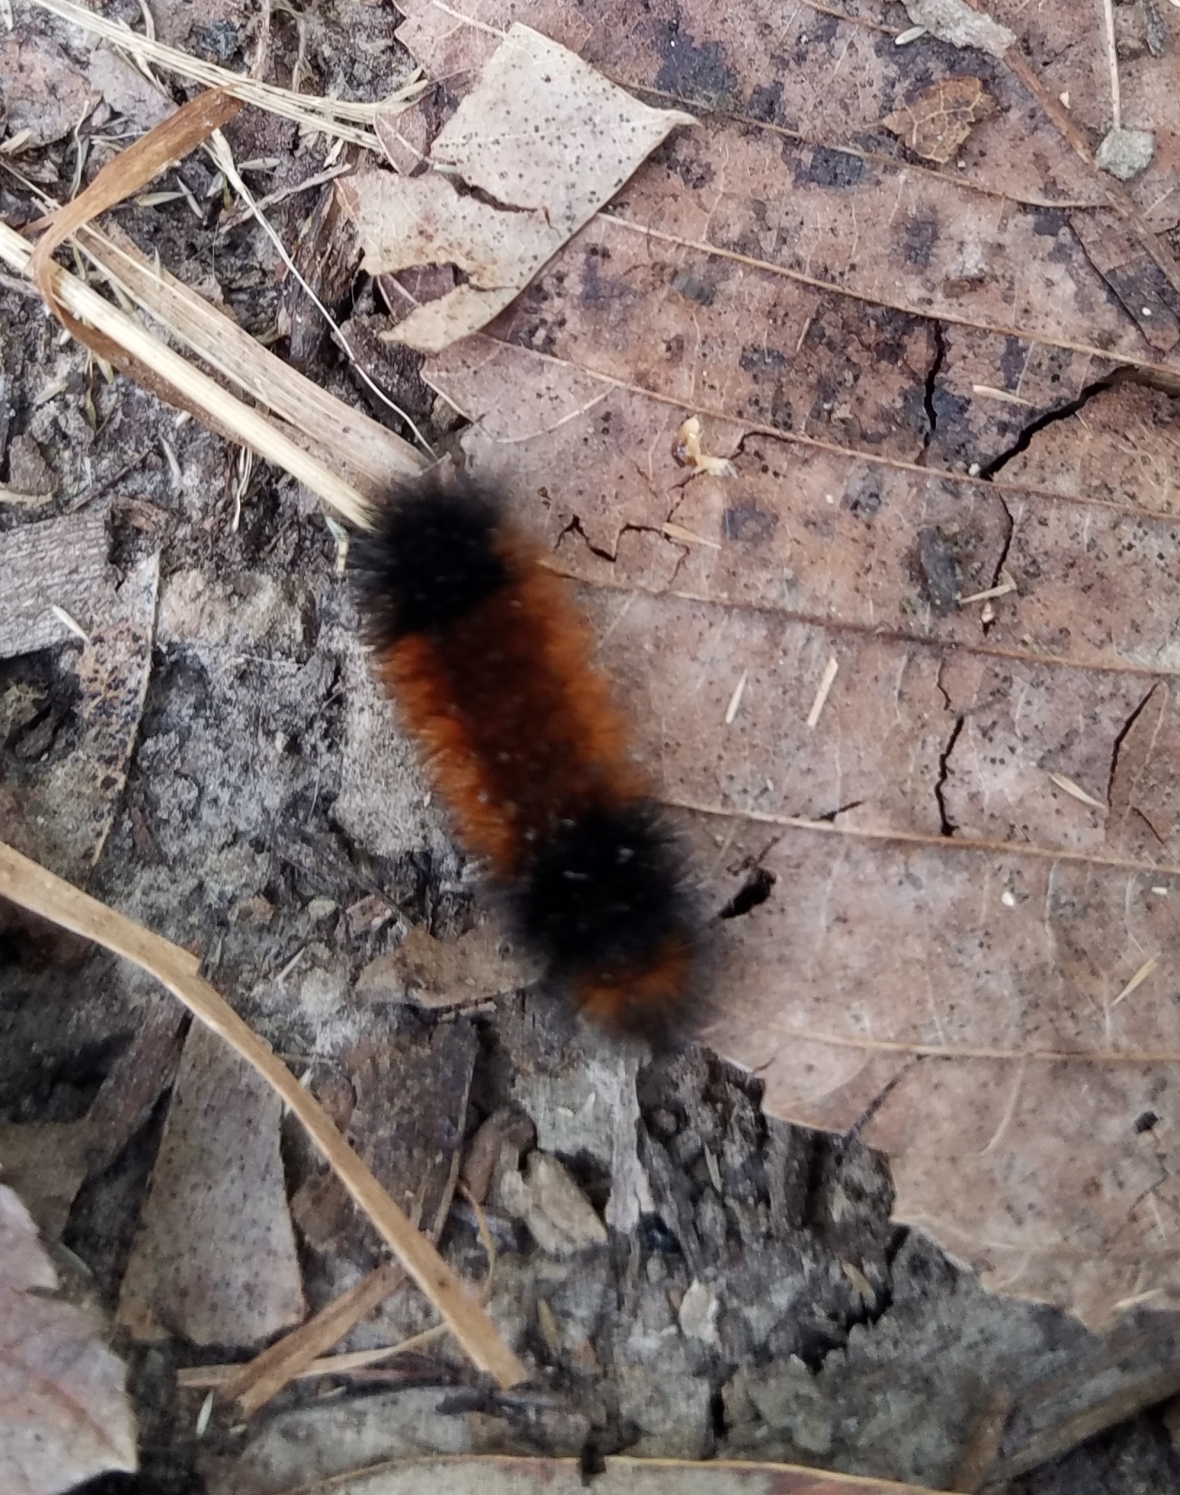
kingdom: Animalia
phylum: Arthropoda
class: Insecta
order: Lepidoptera
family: Erebidae
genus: Pyrrharctia
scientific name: Pyrrharctia isabella
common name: Isabella tiger moth
